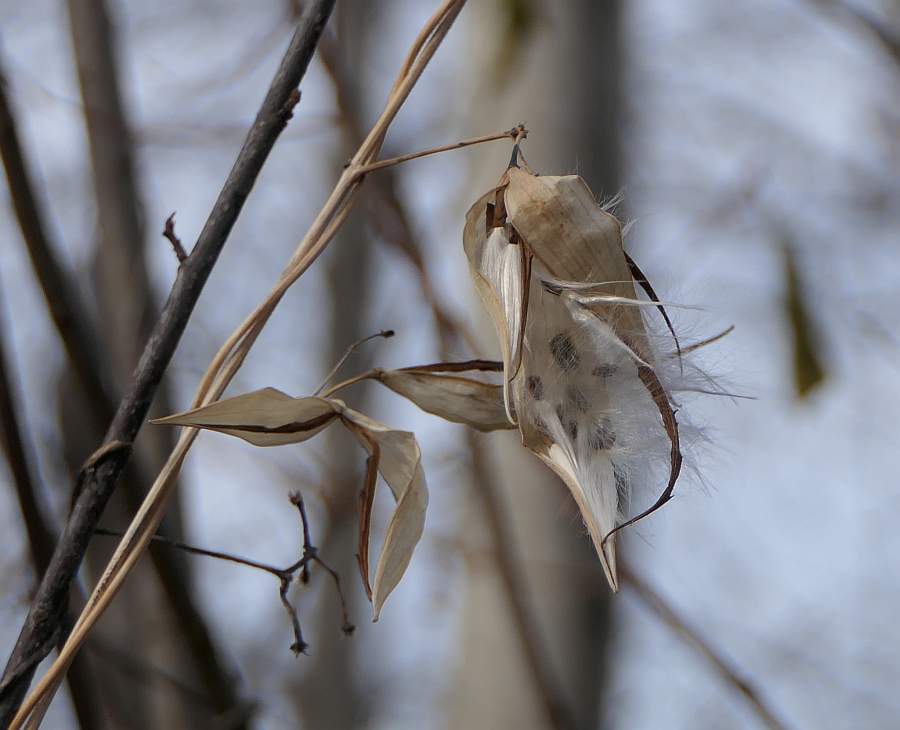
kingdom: Plantae
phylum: Tracheophyta
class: Magnoliopsida
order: Gentianales
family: Apocynaceae
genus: Vincetoxicum
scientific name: Vincetoxicum rossicum
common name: Dog-strangling vine
